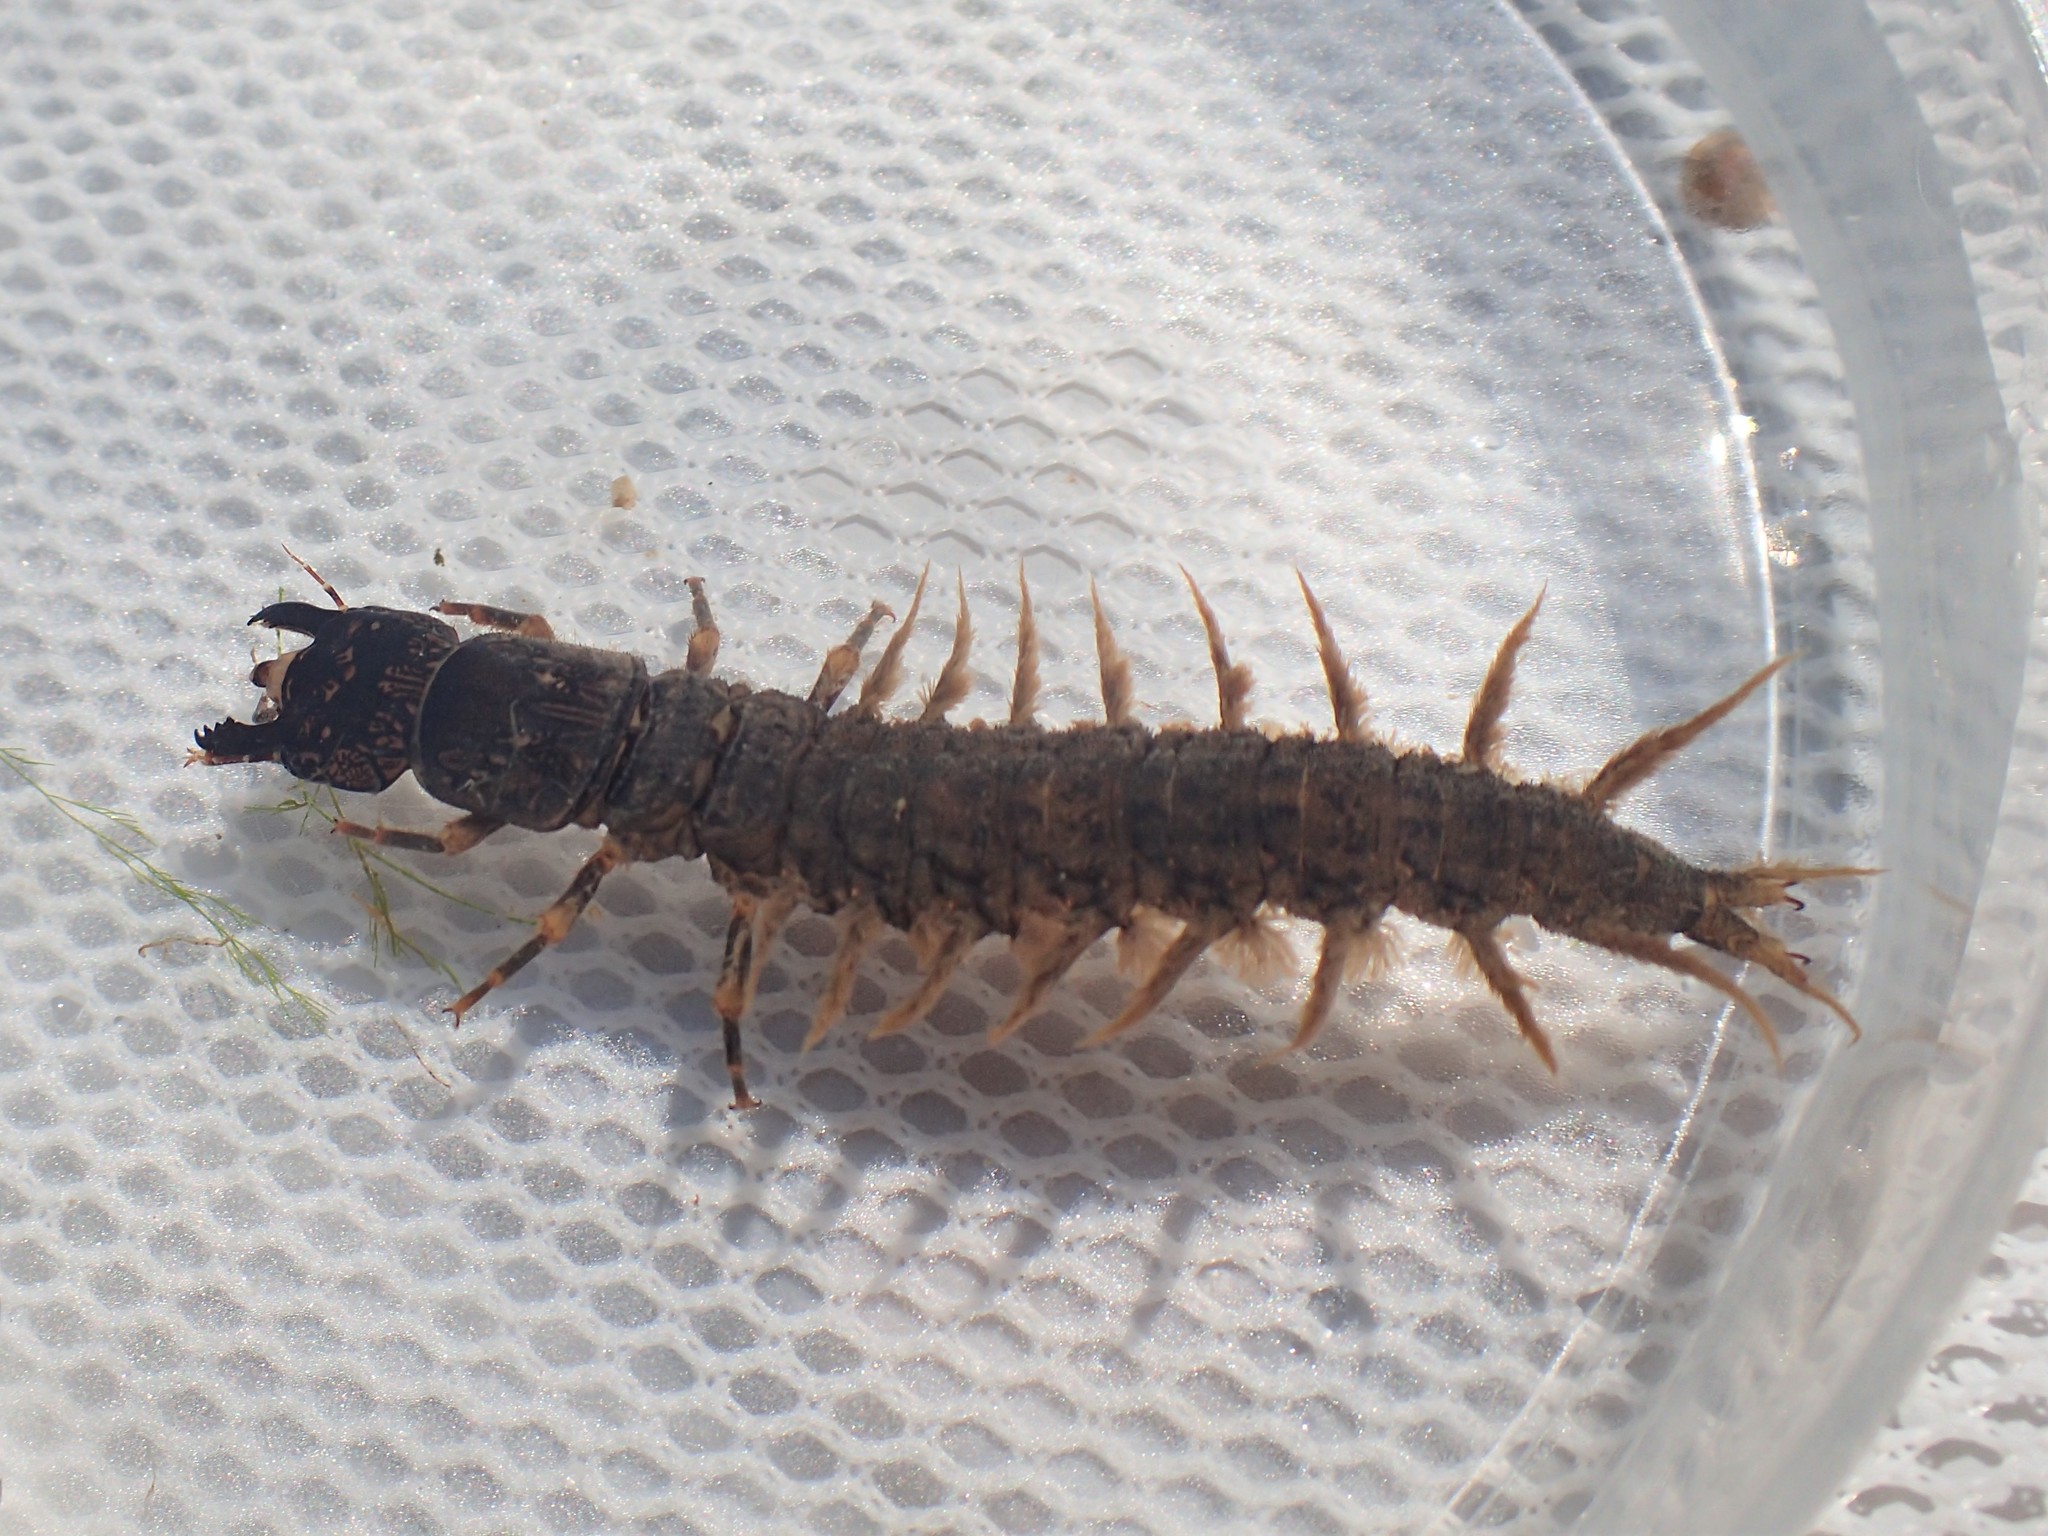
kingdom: Animalia
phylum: Arthropoda
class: Insecta
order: Megaloptera
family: Corydalidae
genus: Corydalus
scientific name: Corydalus cornutus
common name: Dobsonfly
